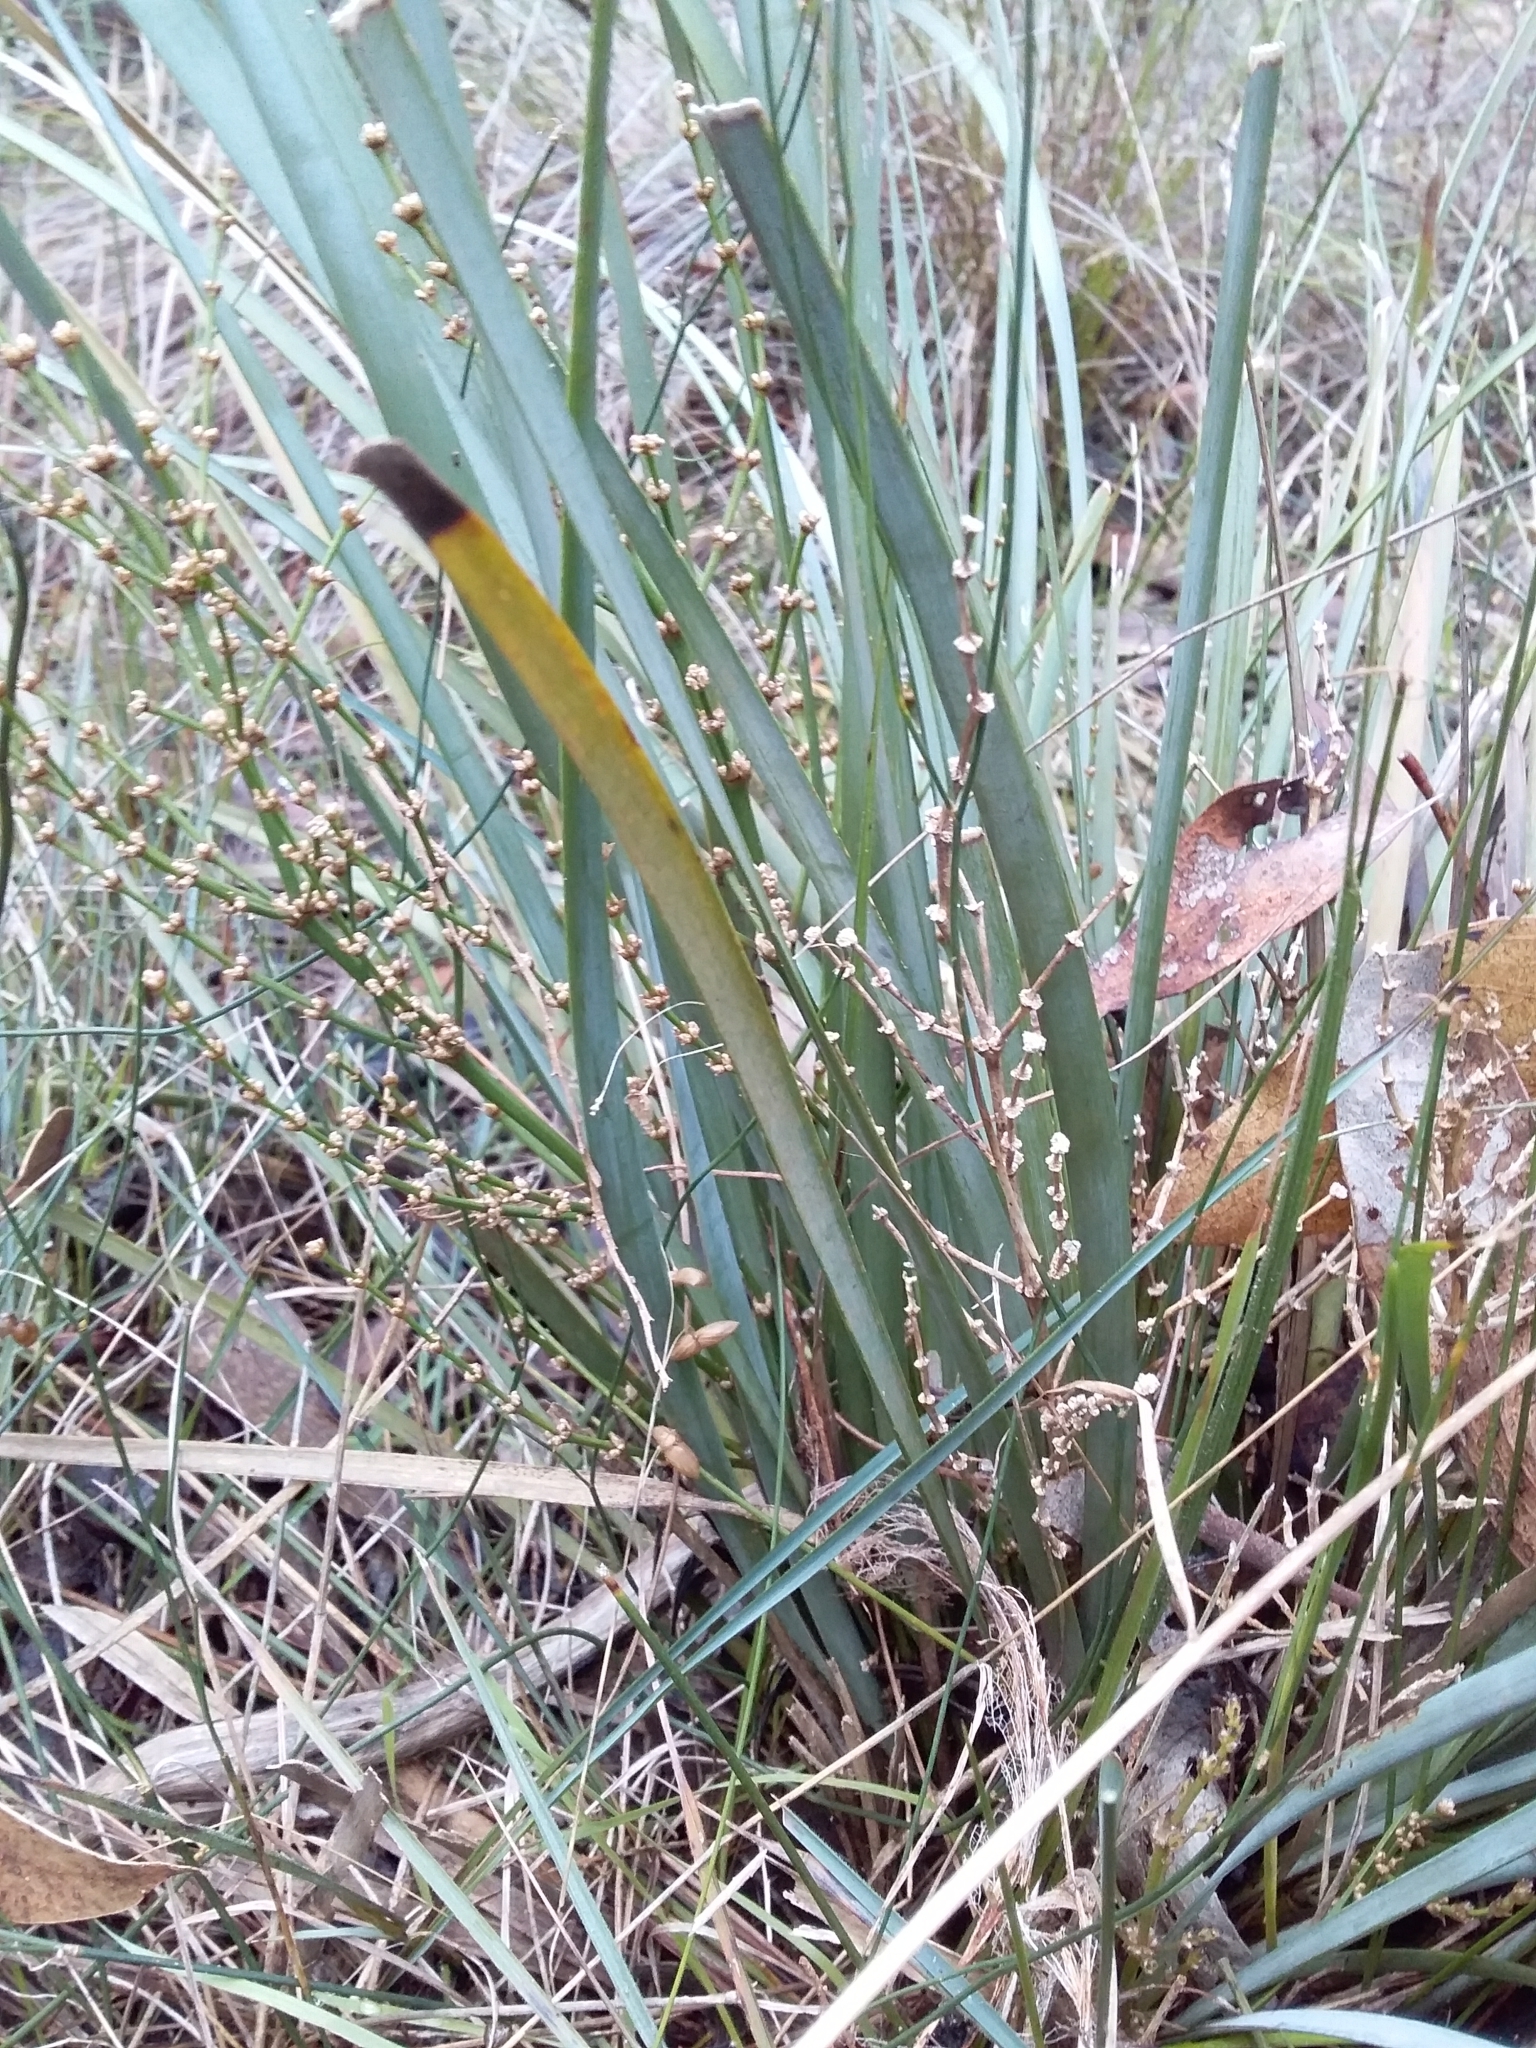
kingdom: Plantae
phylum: Tracheophyta
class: Liliopsida
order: Asparagales
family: Asparagaceae
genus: Lomandra
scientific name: Lomandra multiflora
